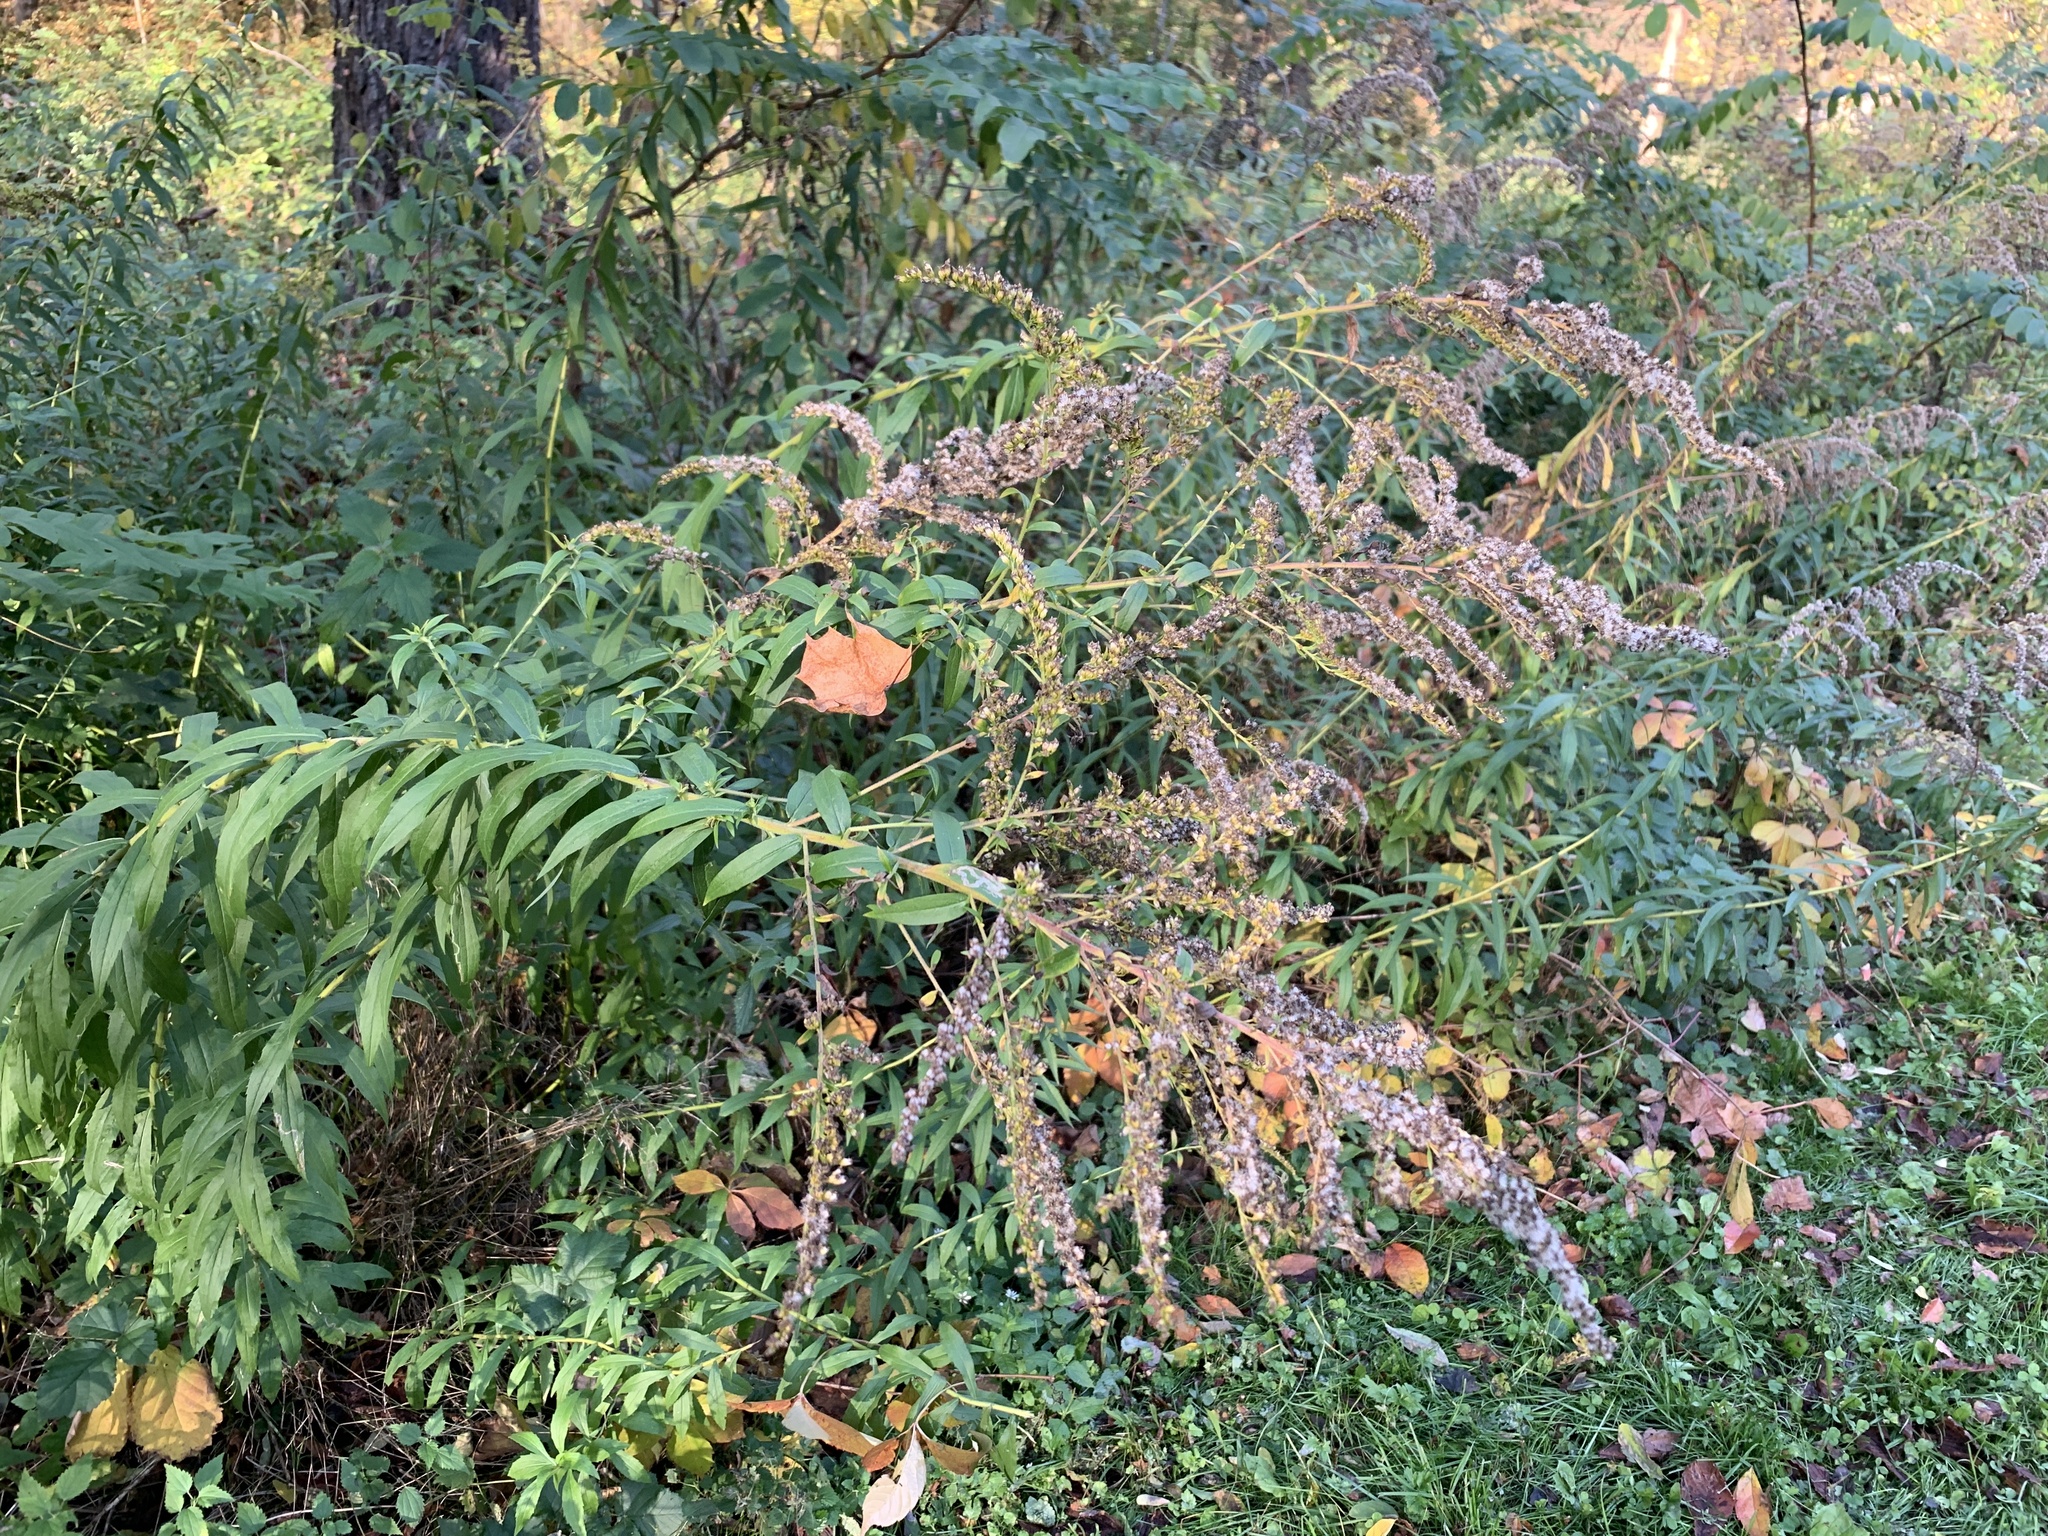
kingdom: Plantae
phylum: Tracheophyta
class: Magnoliopsida
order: Asterales
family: Asteraceae
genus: Solidago
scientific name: Solidago canadensis
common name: Canada goldenrod
